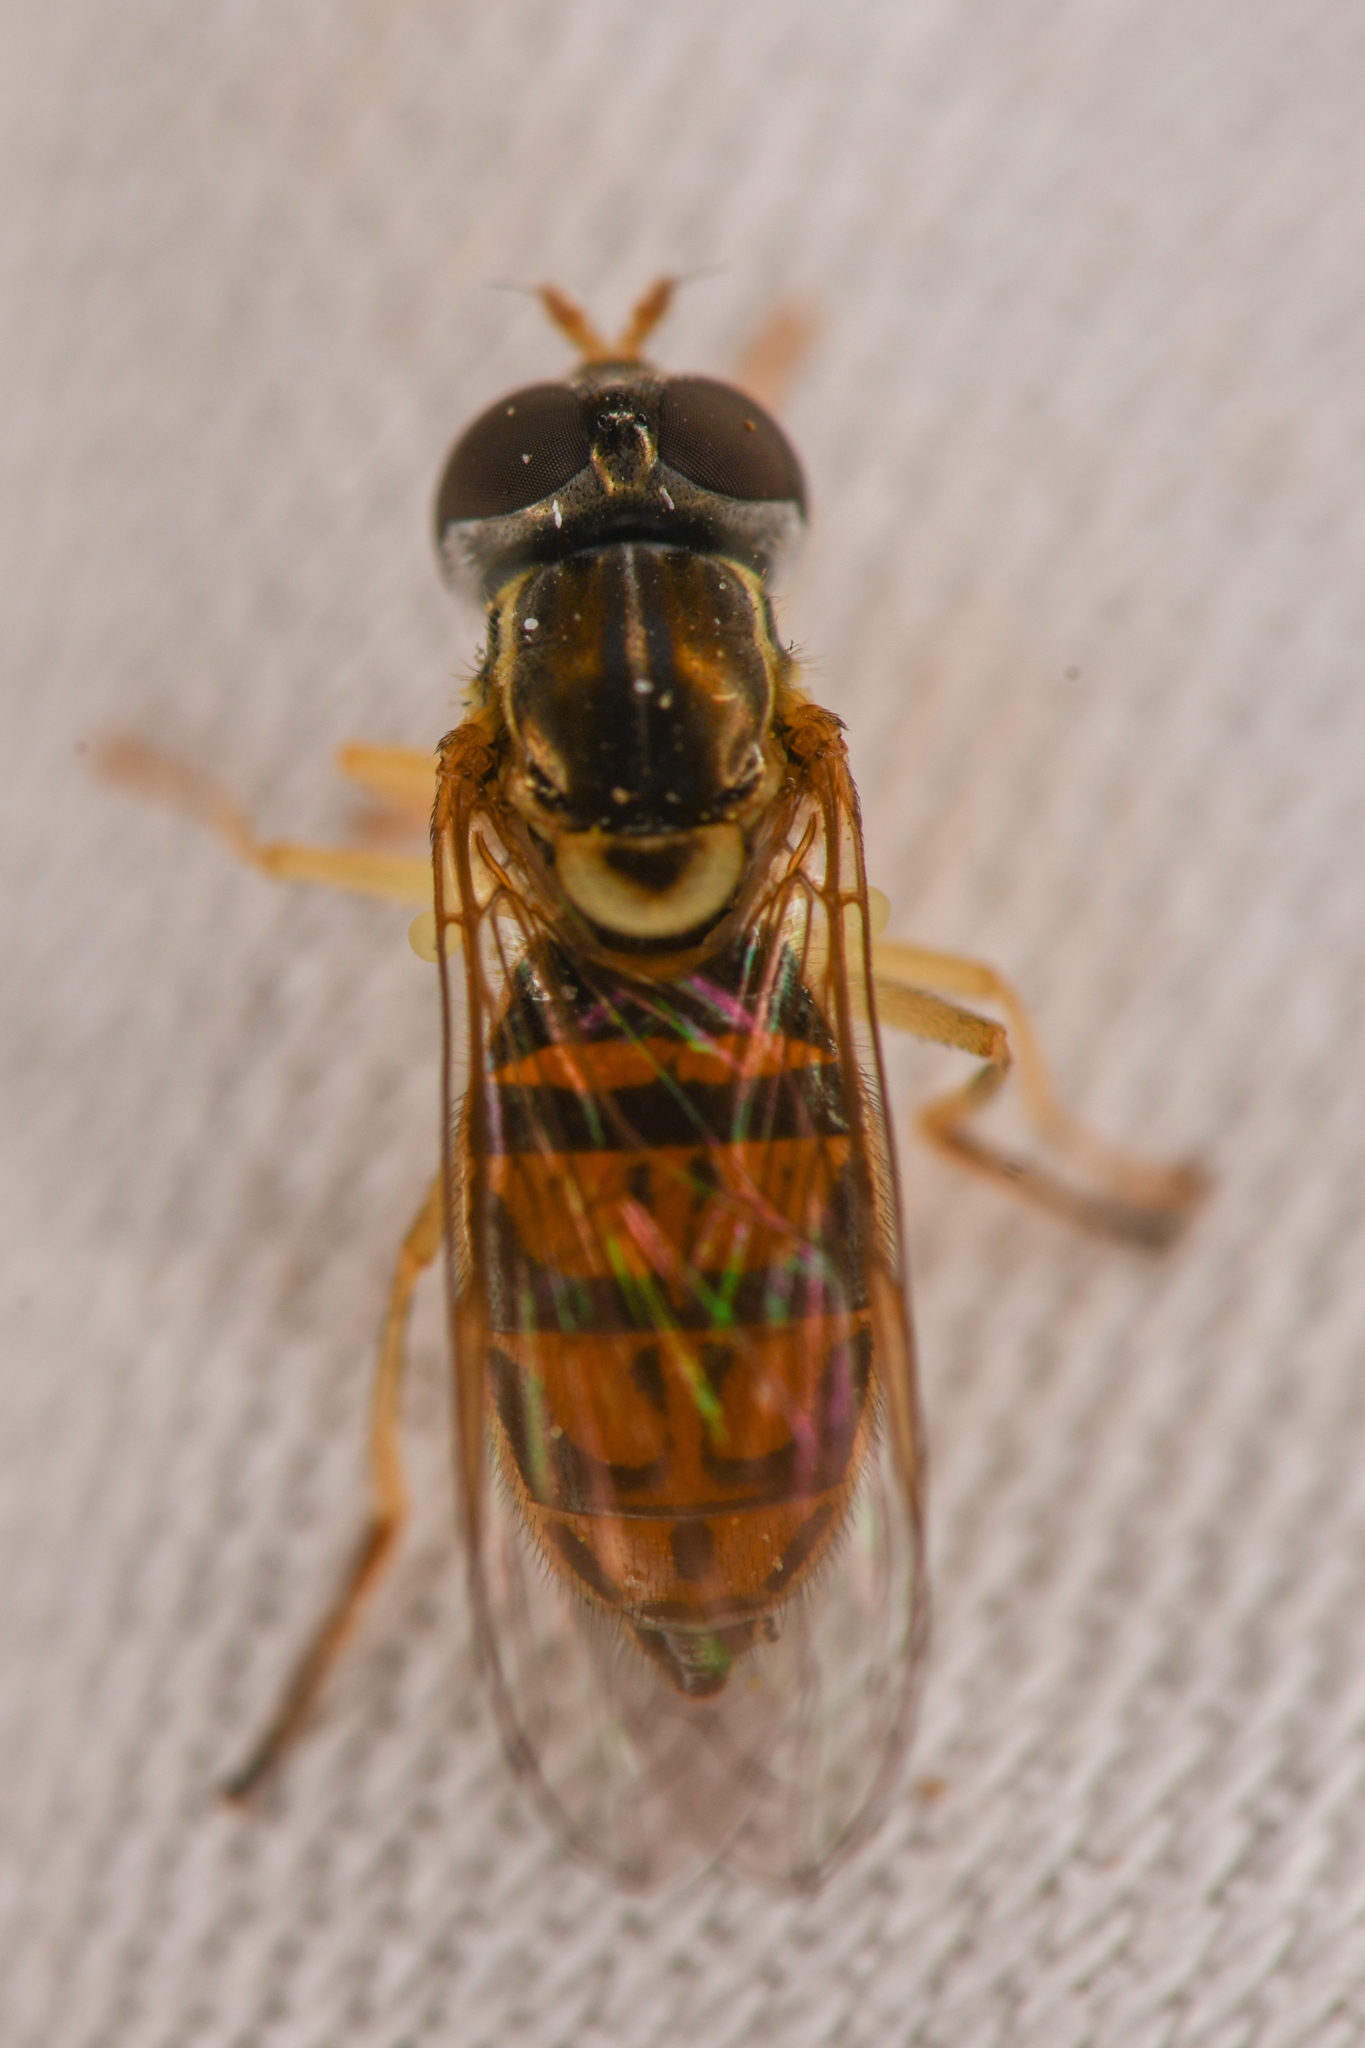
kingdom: Animalia
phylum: Arthropoda
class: Insecta
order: Diptera
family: Syrphidae
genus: Toxomerus
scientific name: Toxomerus marginatus
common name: Syrphid fly
